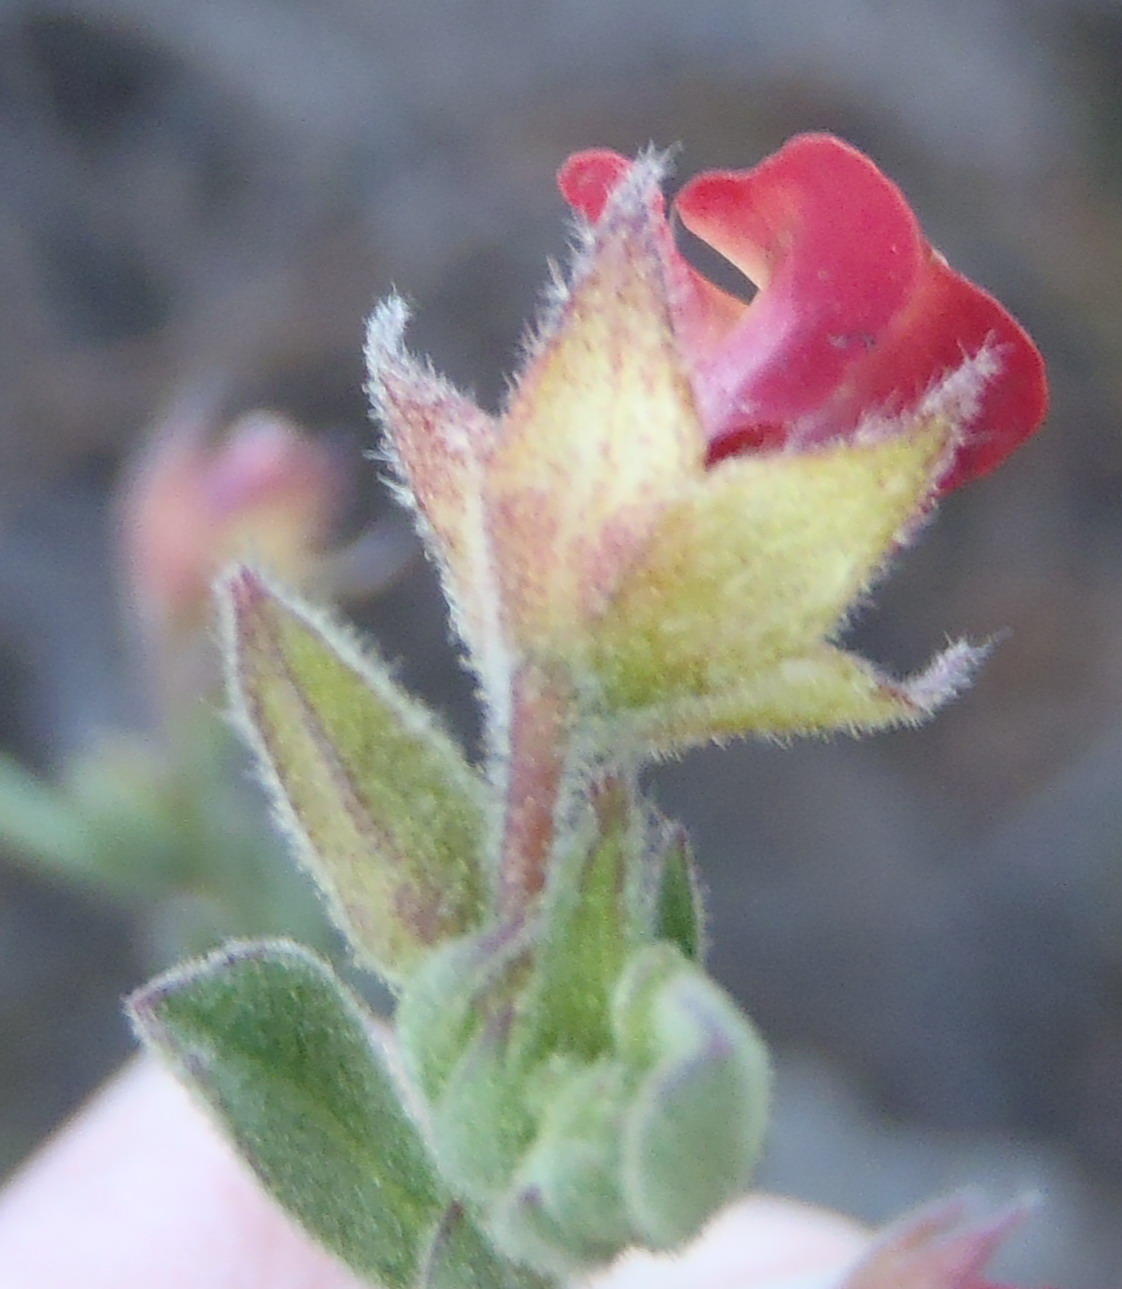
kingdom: Plantae
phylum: Tracheophyta
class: Magnoliopsida
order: Malvales
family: Malvaceae
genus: Hermannia
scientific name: Hermannia flammula
